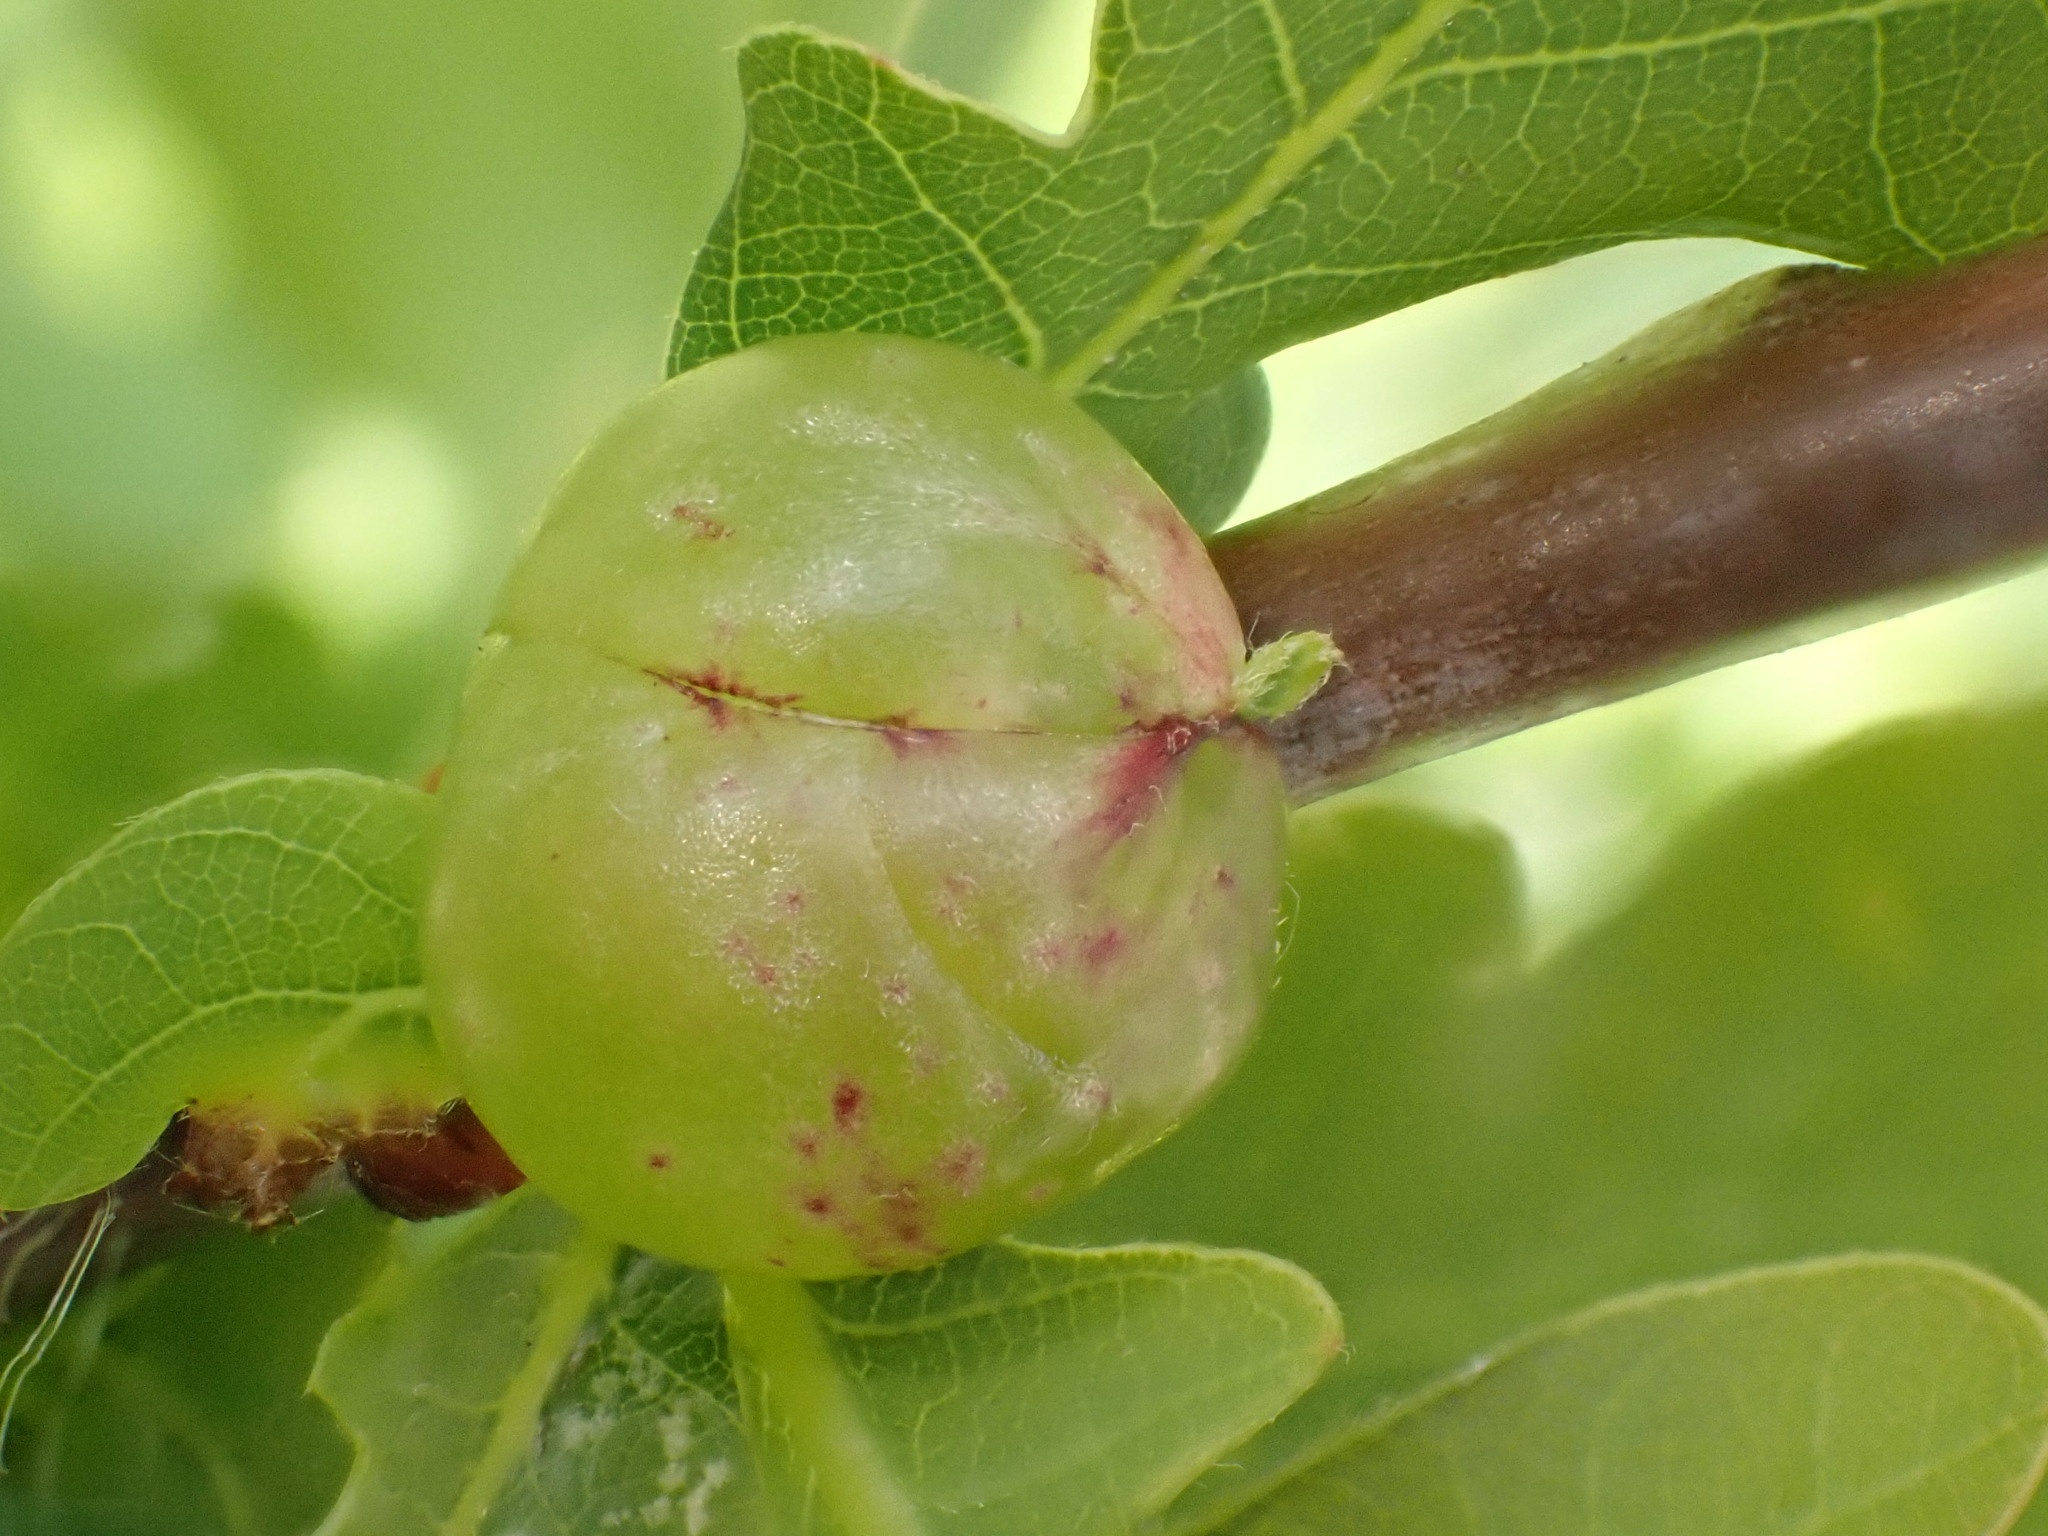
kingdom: Animalia
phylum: Arthropoda
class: Insecta
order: Hymenoptera
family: Cynipidae
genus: Neuroterus
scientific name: Neuroterus quercusbaccarum
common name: Common spangle gall
